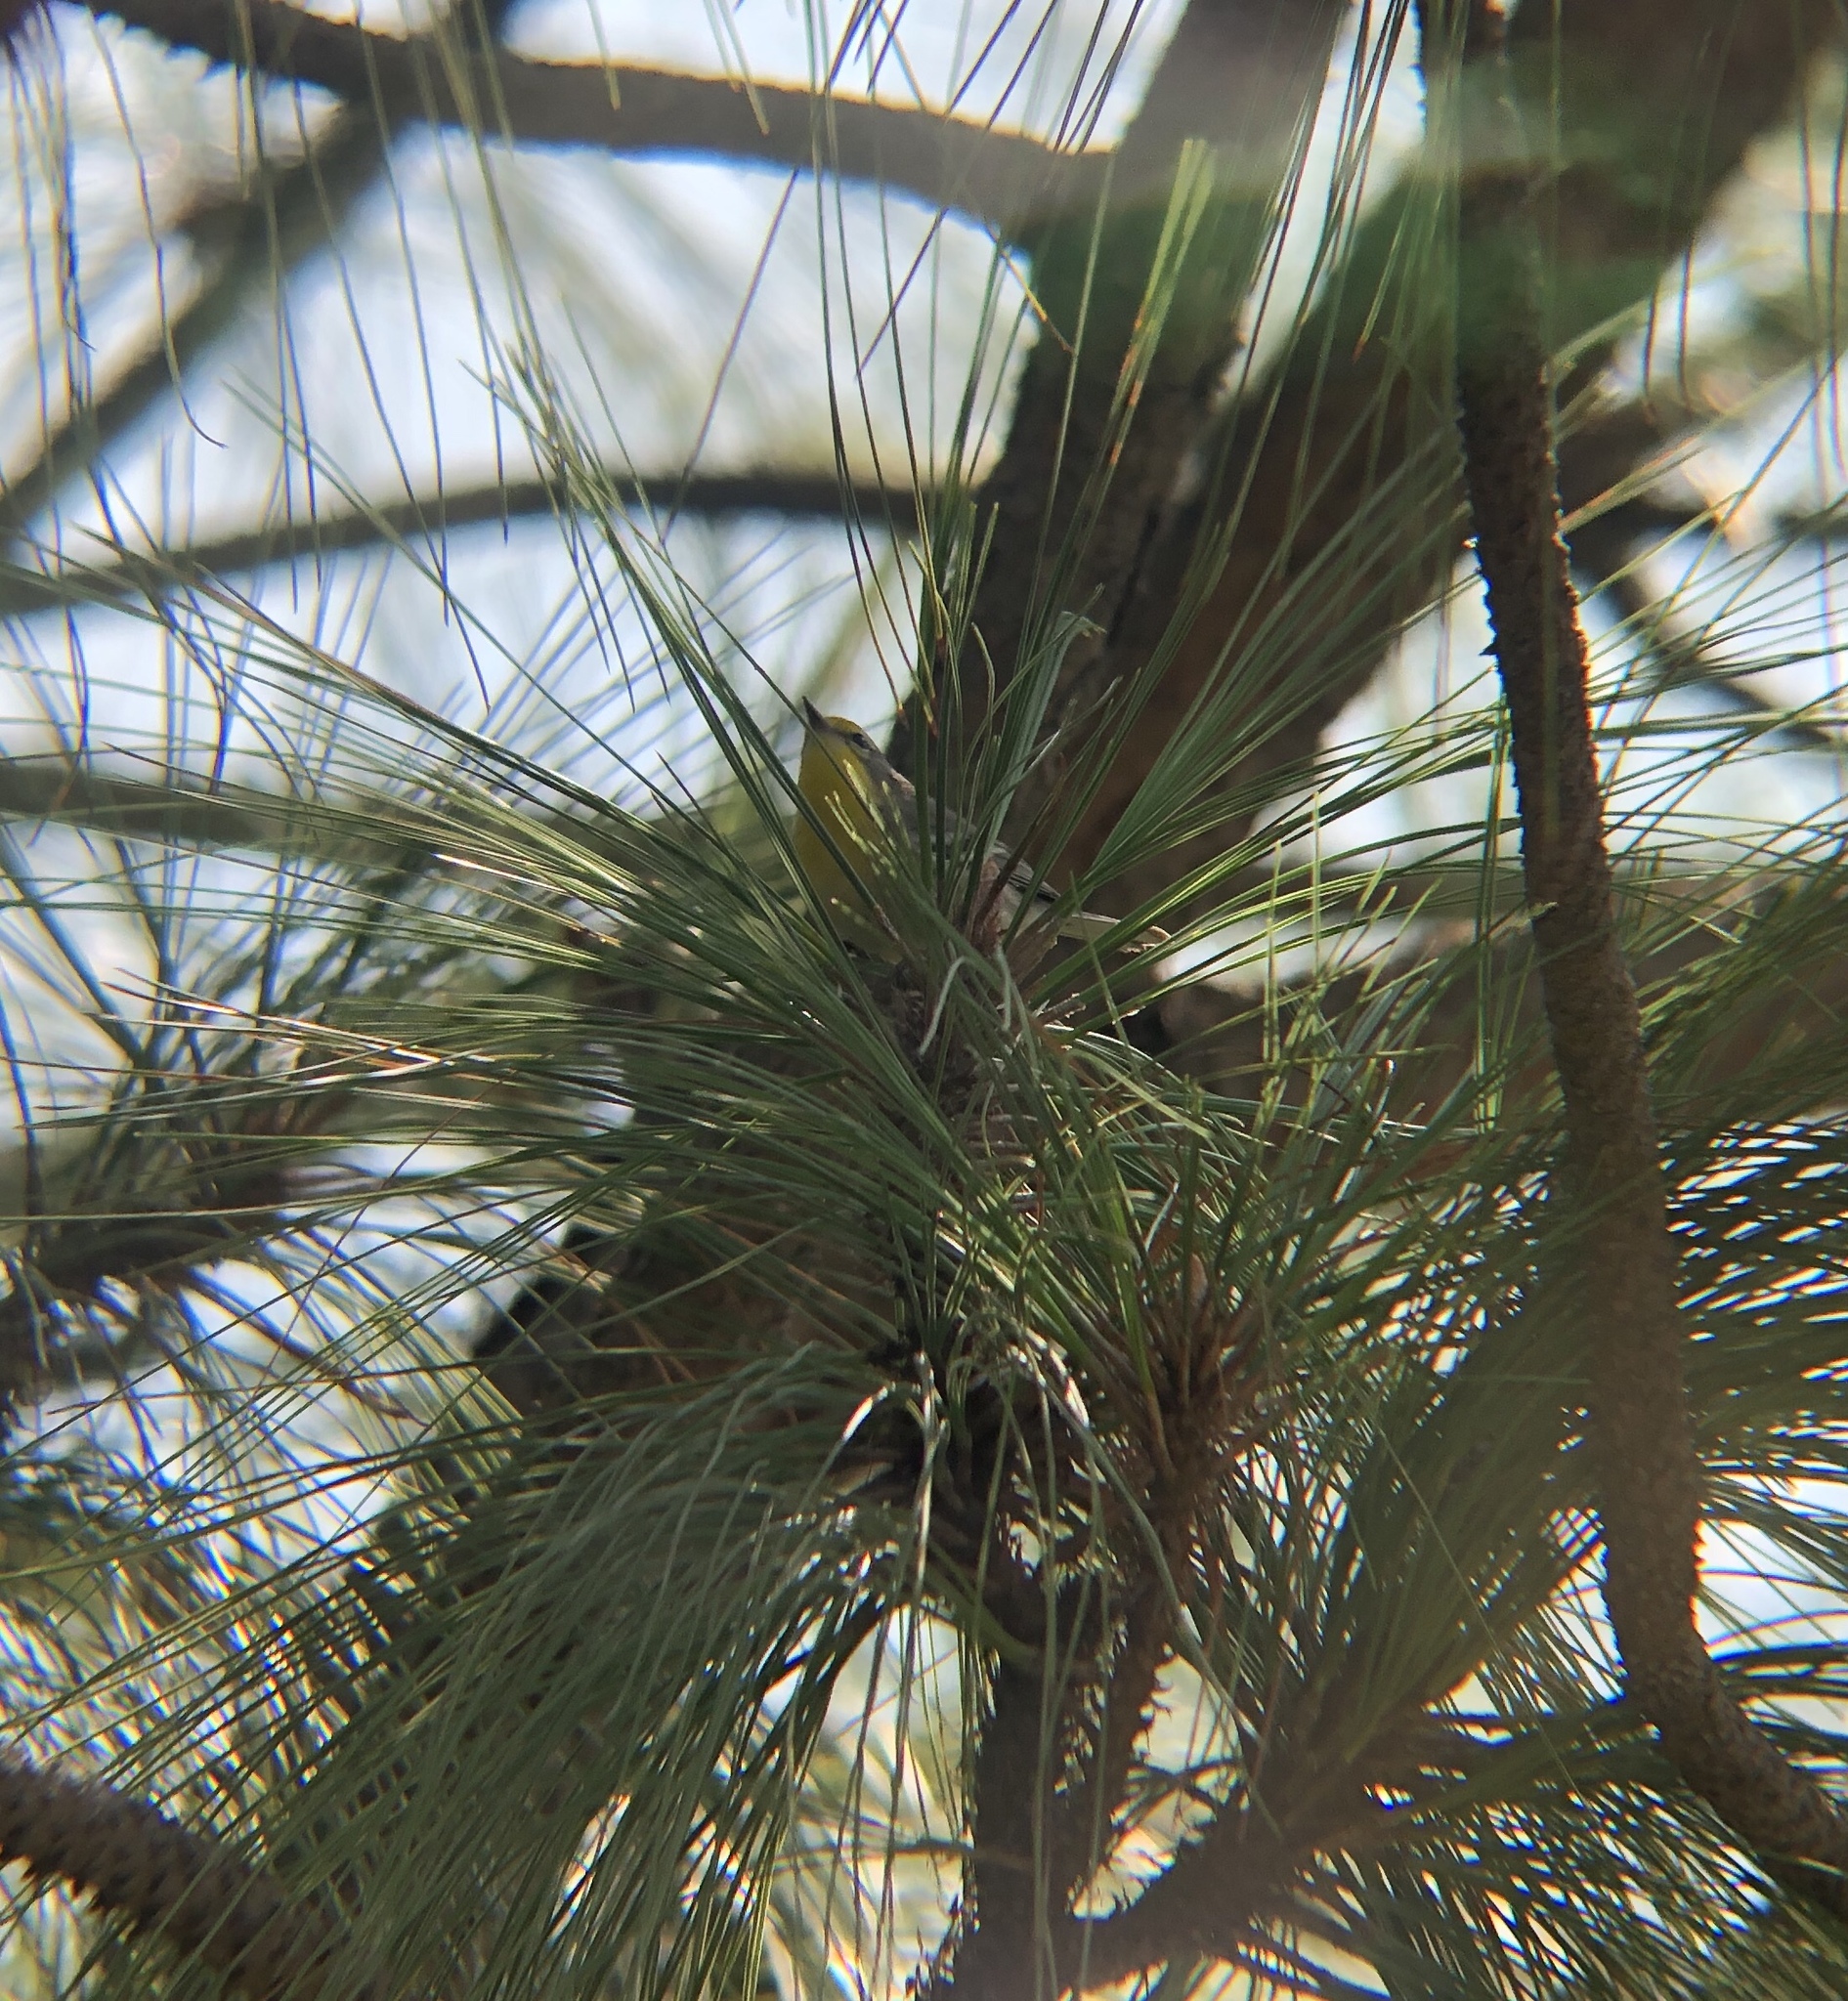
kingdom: Animalia
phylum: Chordata
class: Aves
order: Passeriformes
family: Parulidae
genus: Setophaga
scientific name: Setophaga graciae
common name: Grace's warbler
